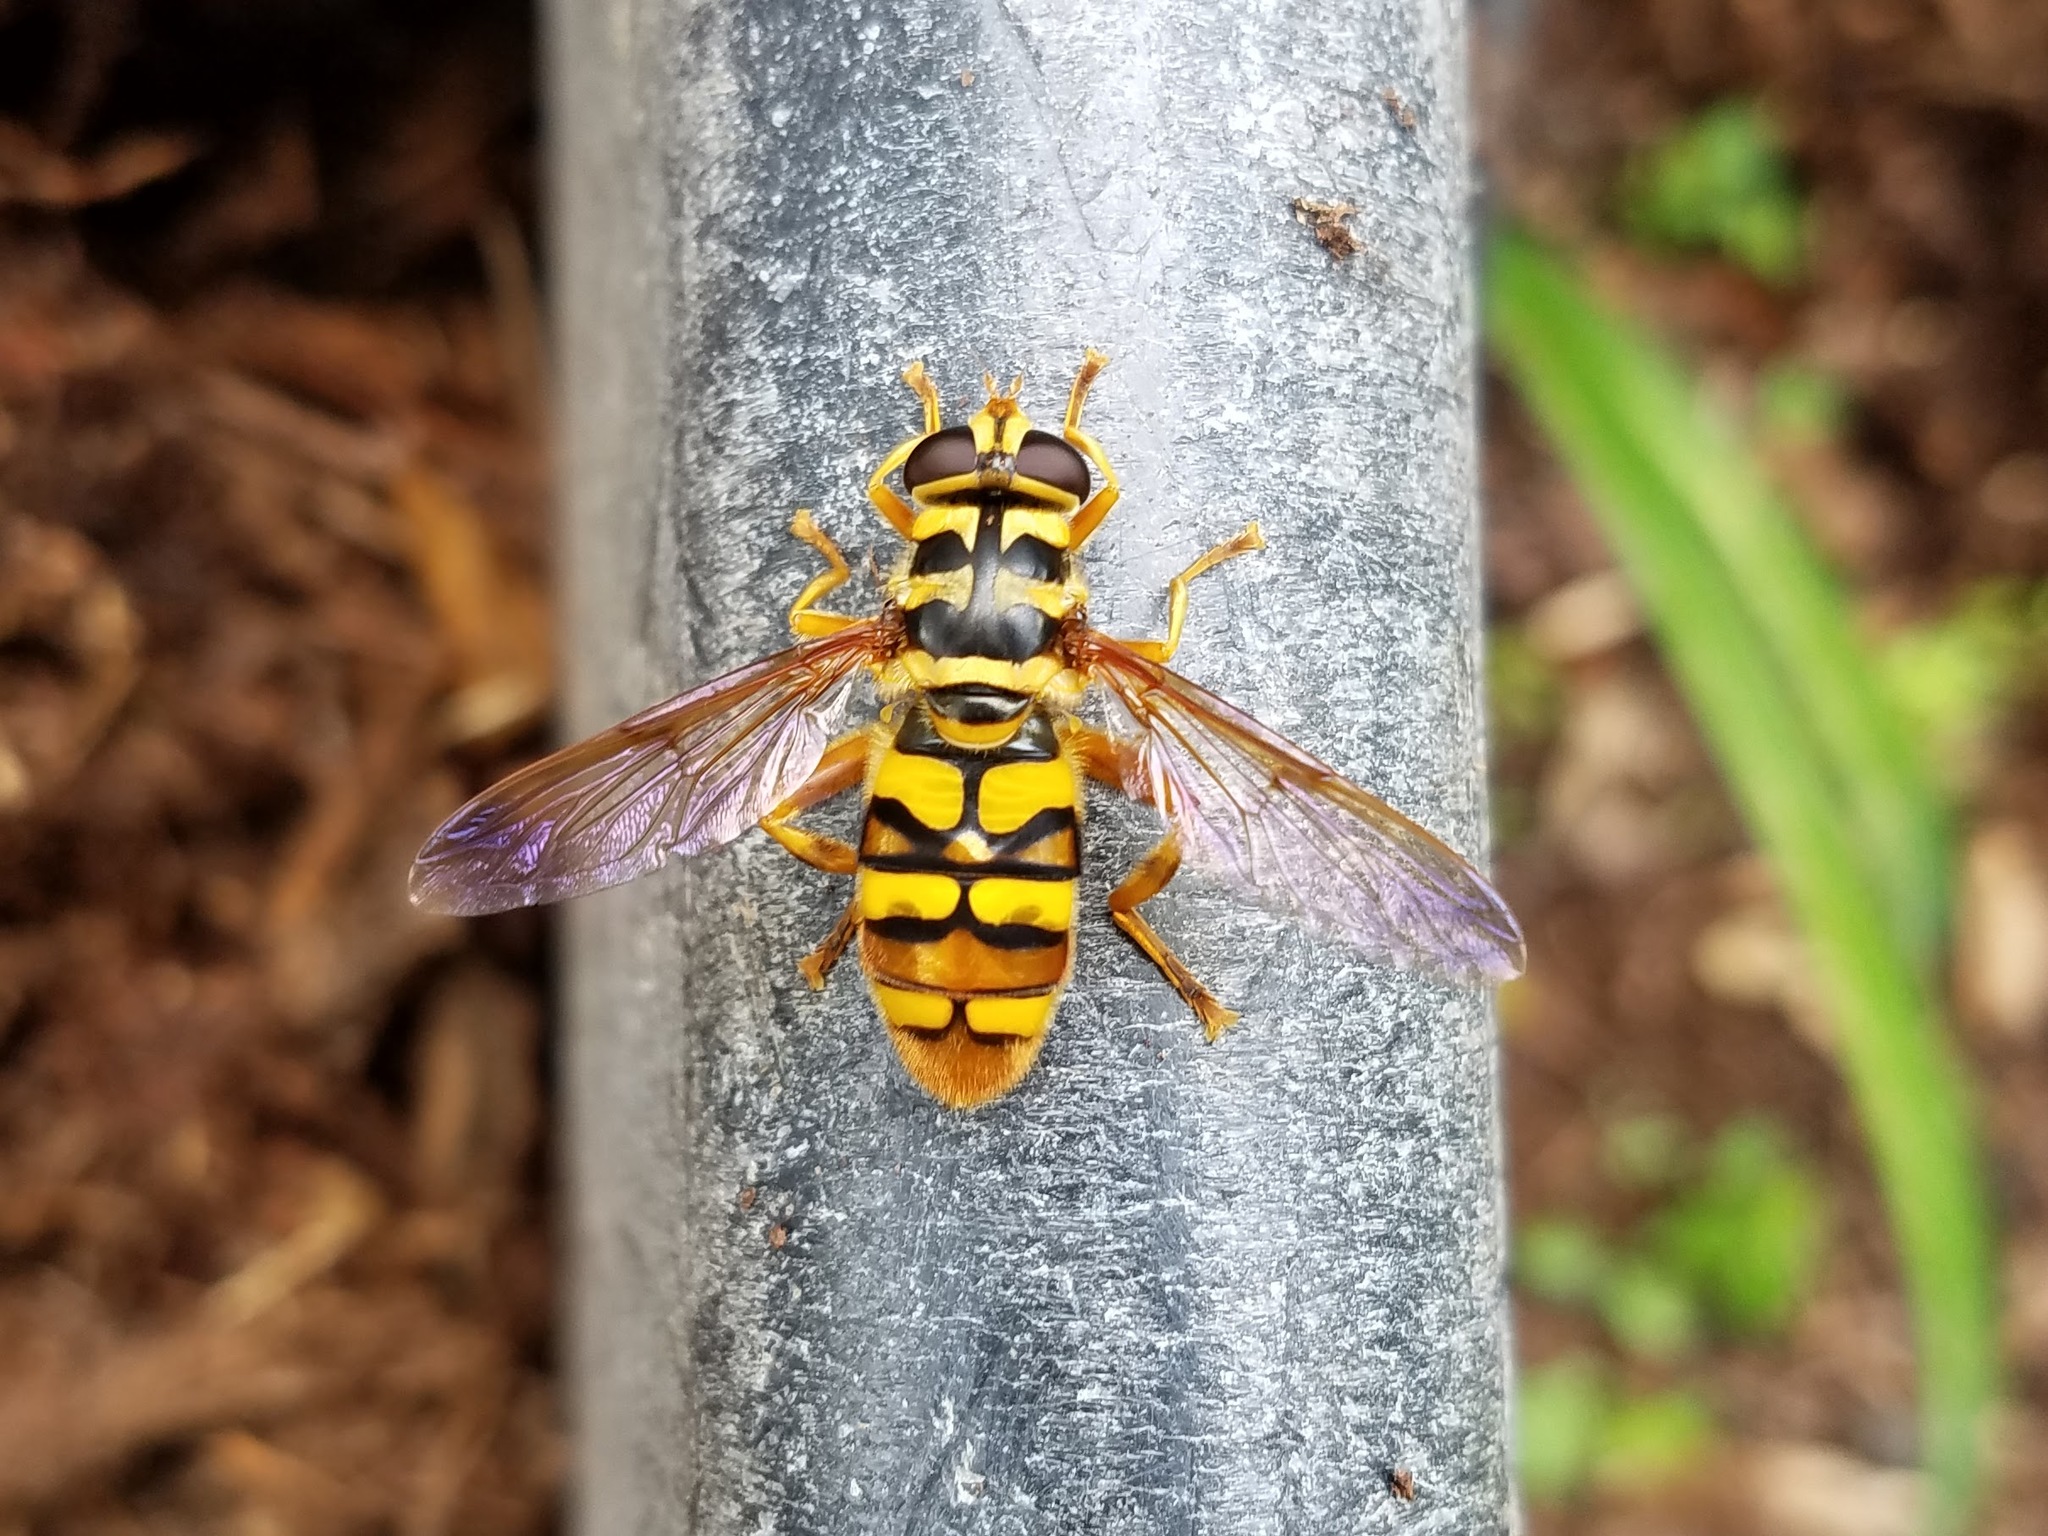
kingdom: Animalia
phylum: Arthropoda
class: Insecta
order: Diptera
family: Syrphidae
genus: Milesia
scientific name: Milesia virginiensis
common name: Virginia giant
